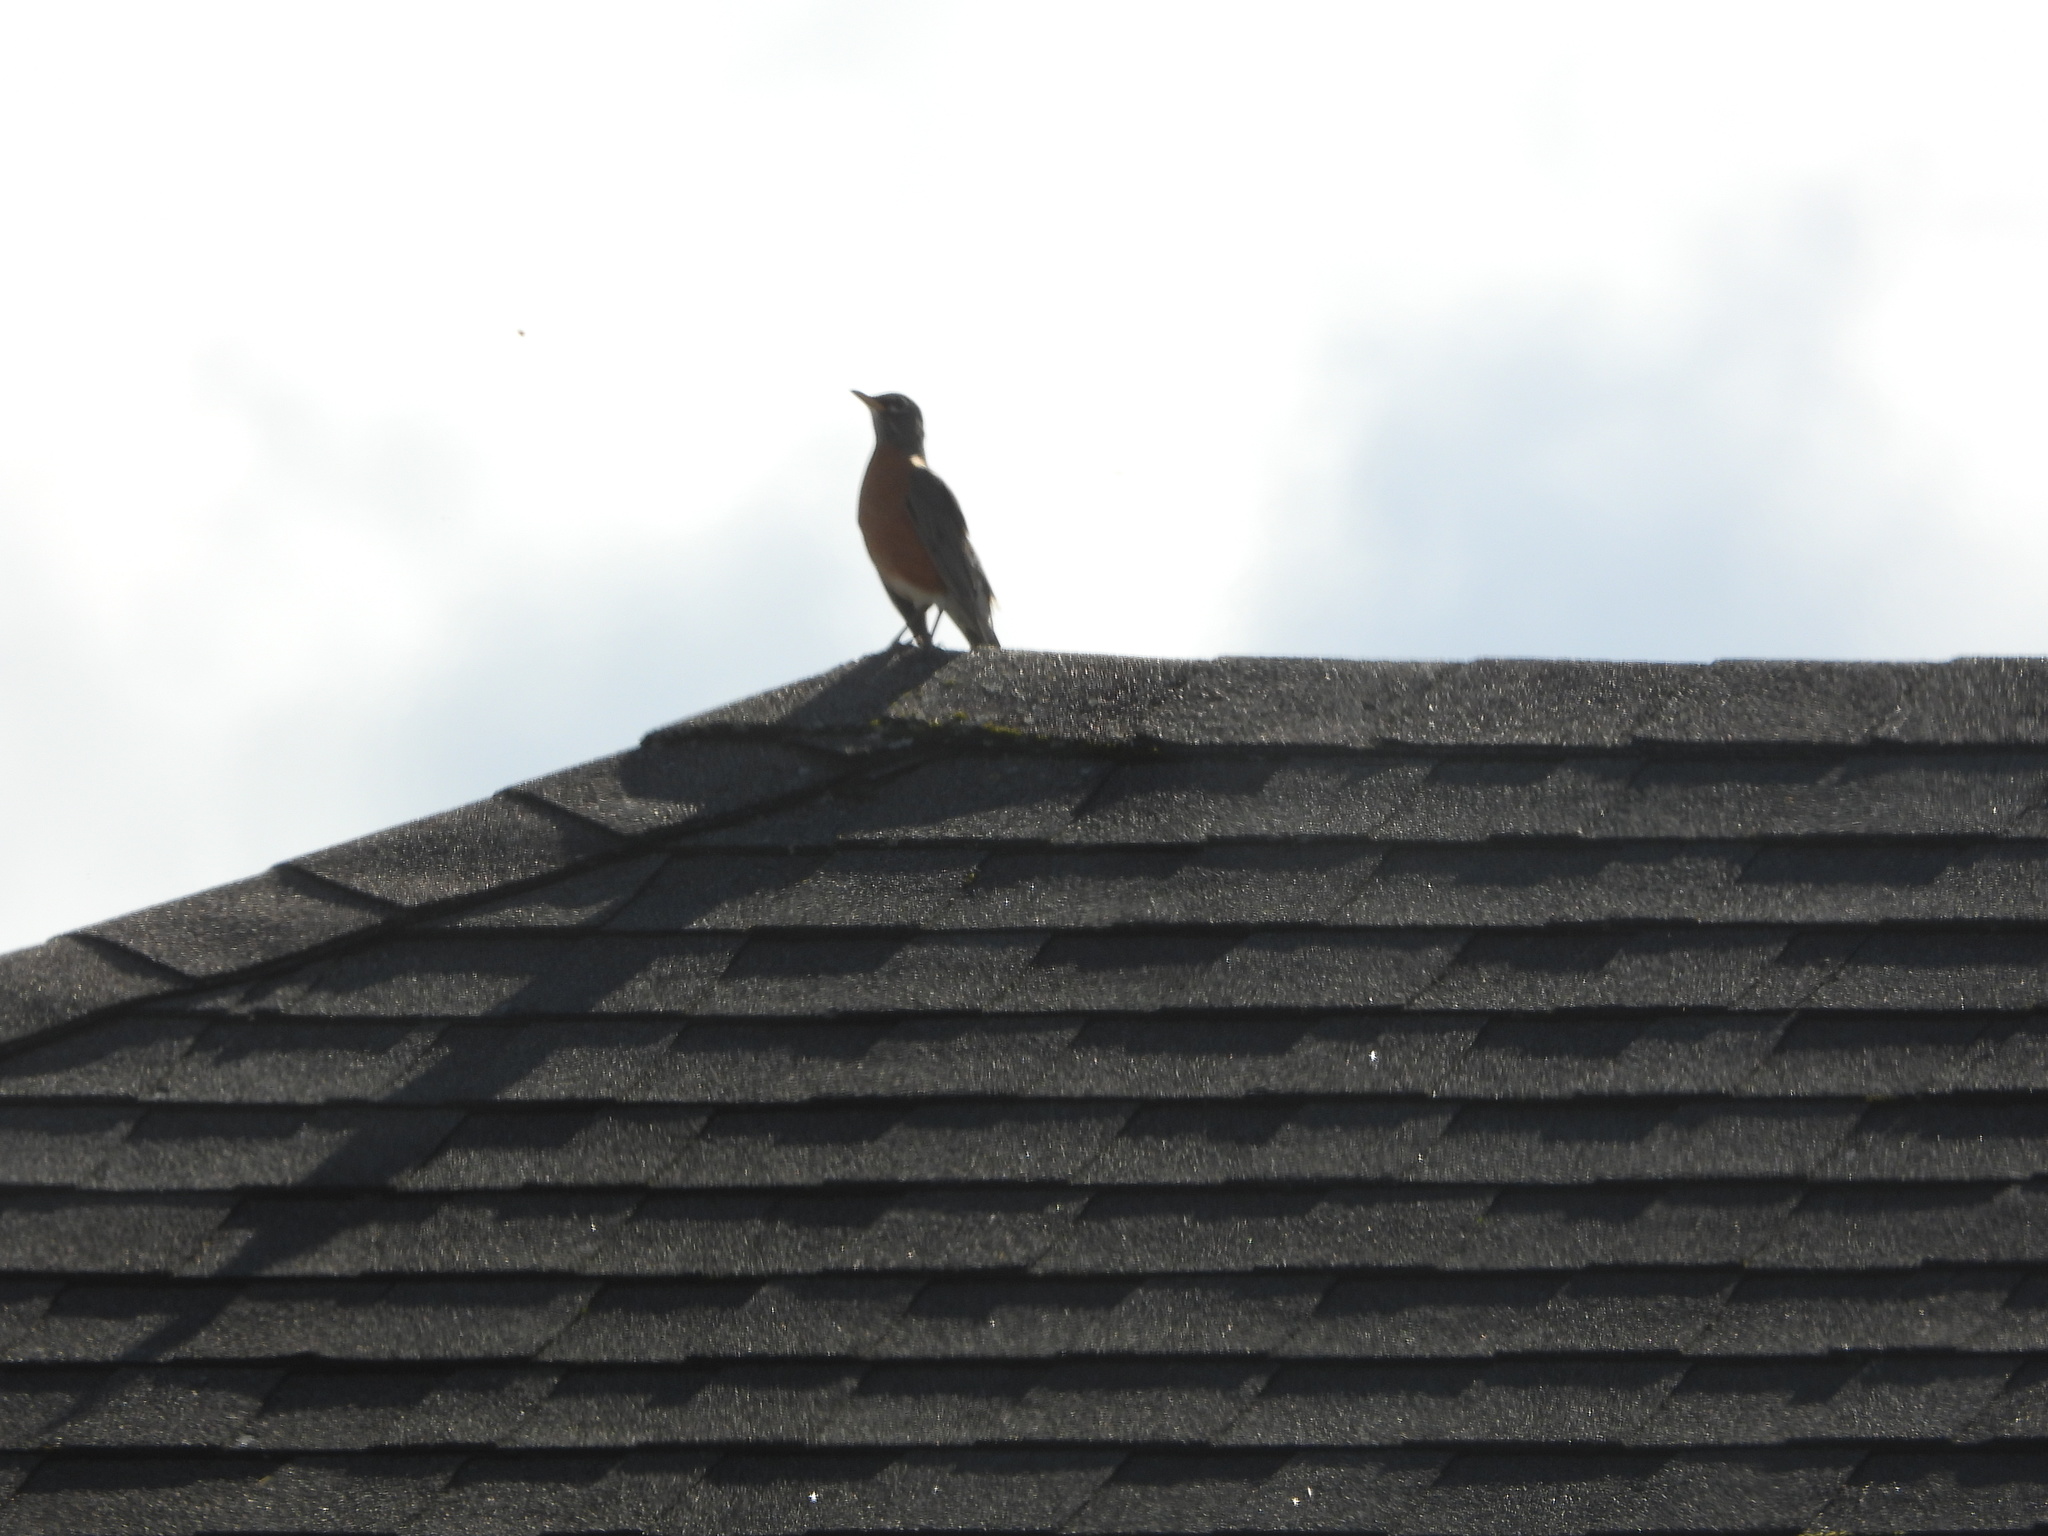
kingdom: Animalia
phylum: Chordata
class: Aves
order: Passeriformes
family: Turdidae
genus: Turdus
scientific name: Turdus migratorius
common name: American robin
